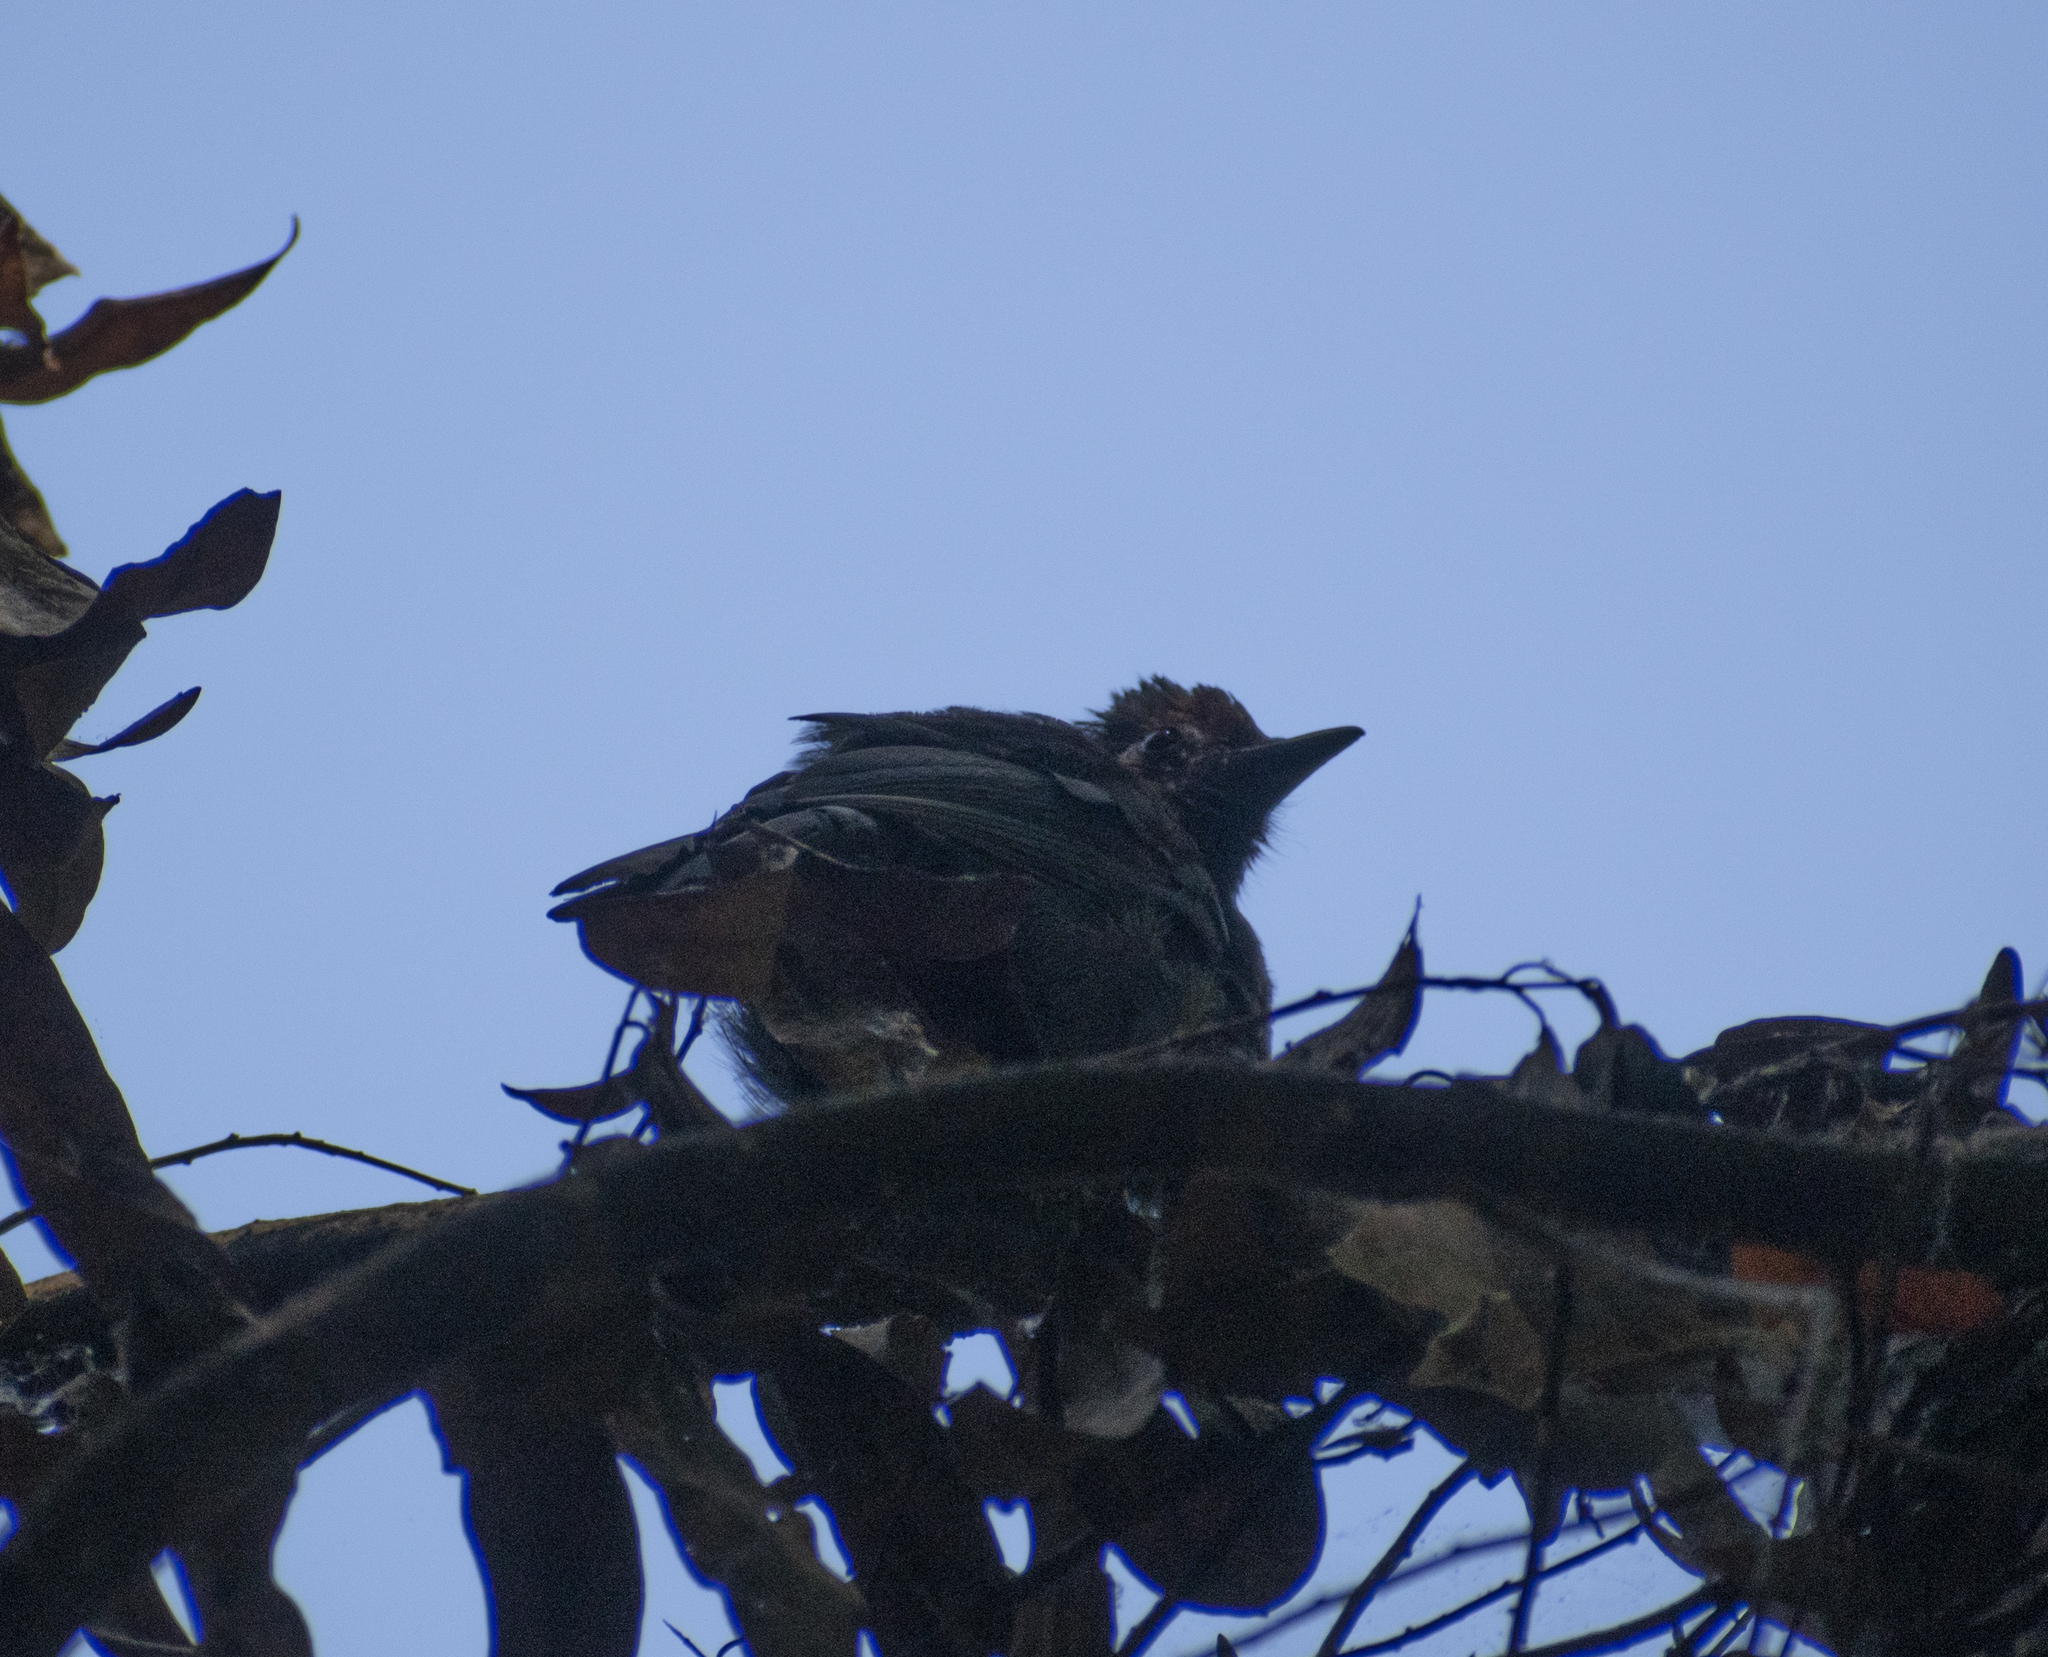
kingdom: Animalia
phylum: Chordata
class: Aves
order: Passeriformes
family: Corvidae
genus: Cyanocitta
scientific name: Cyanocitta stelleri
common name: Steller's jay
